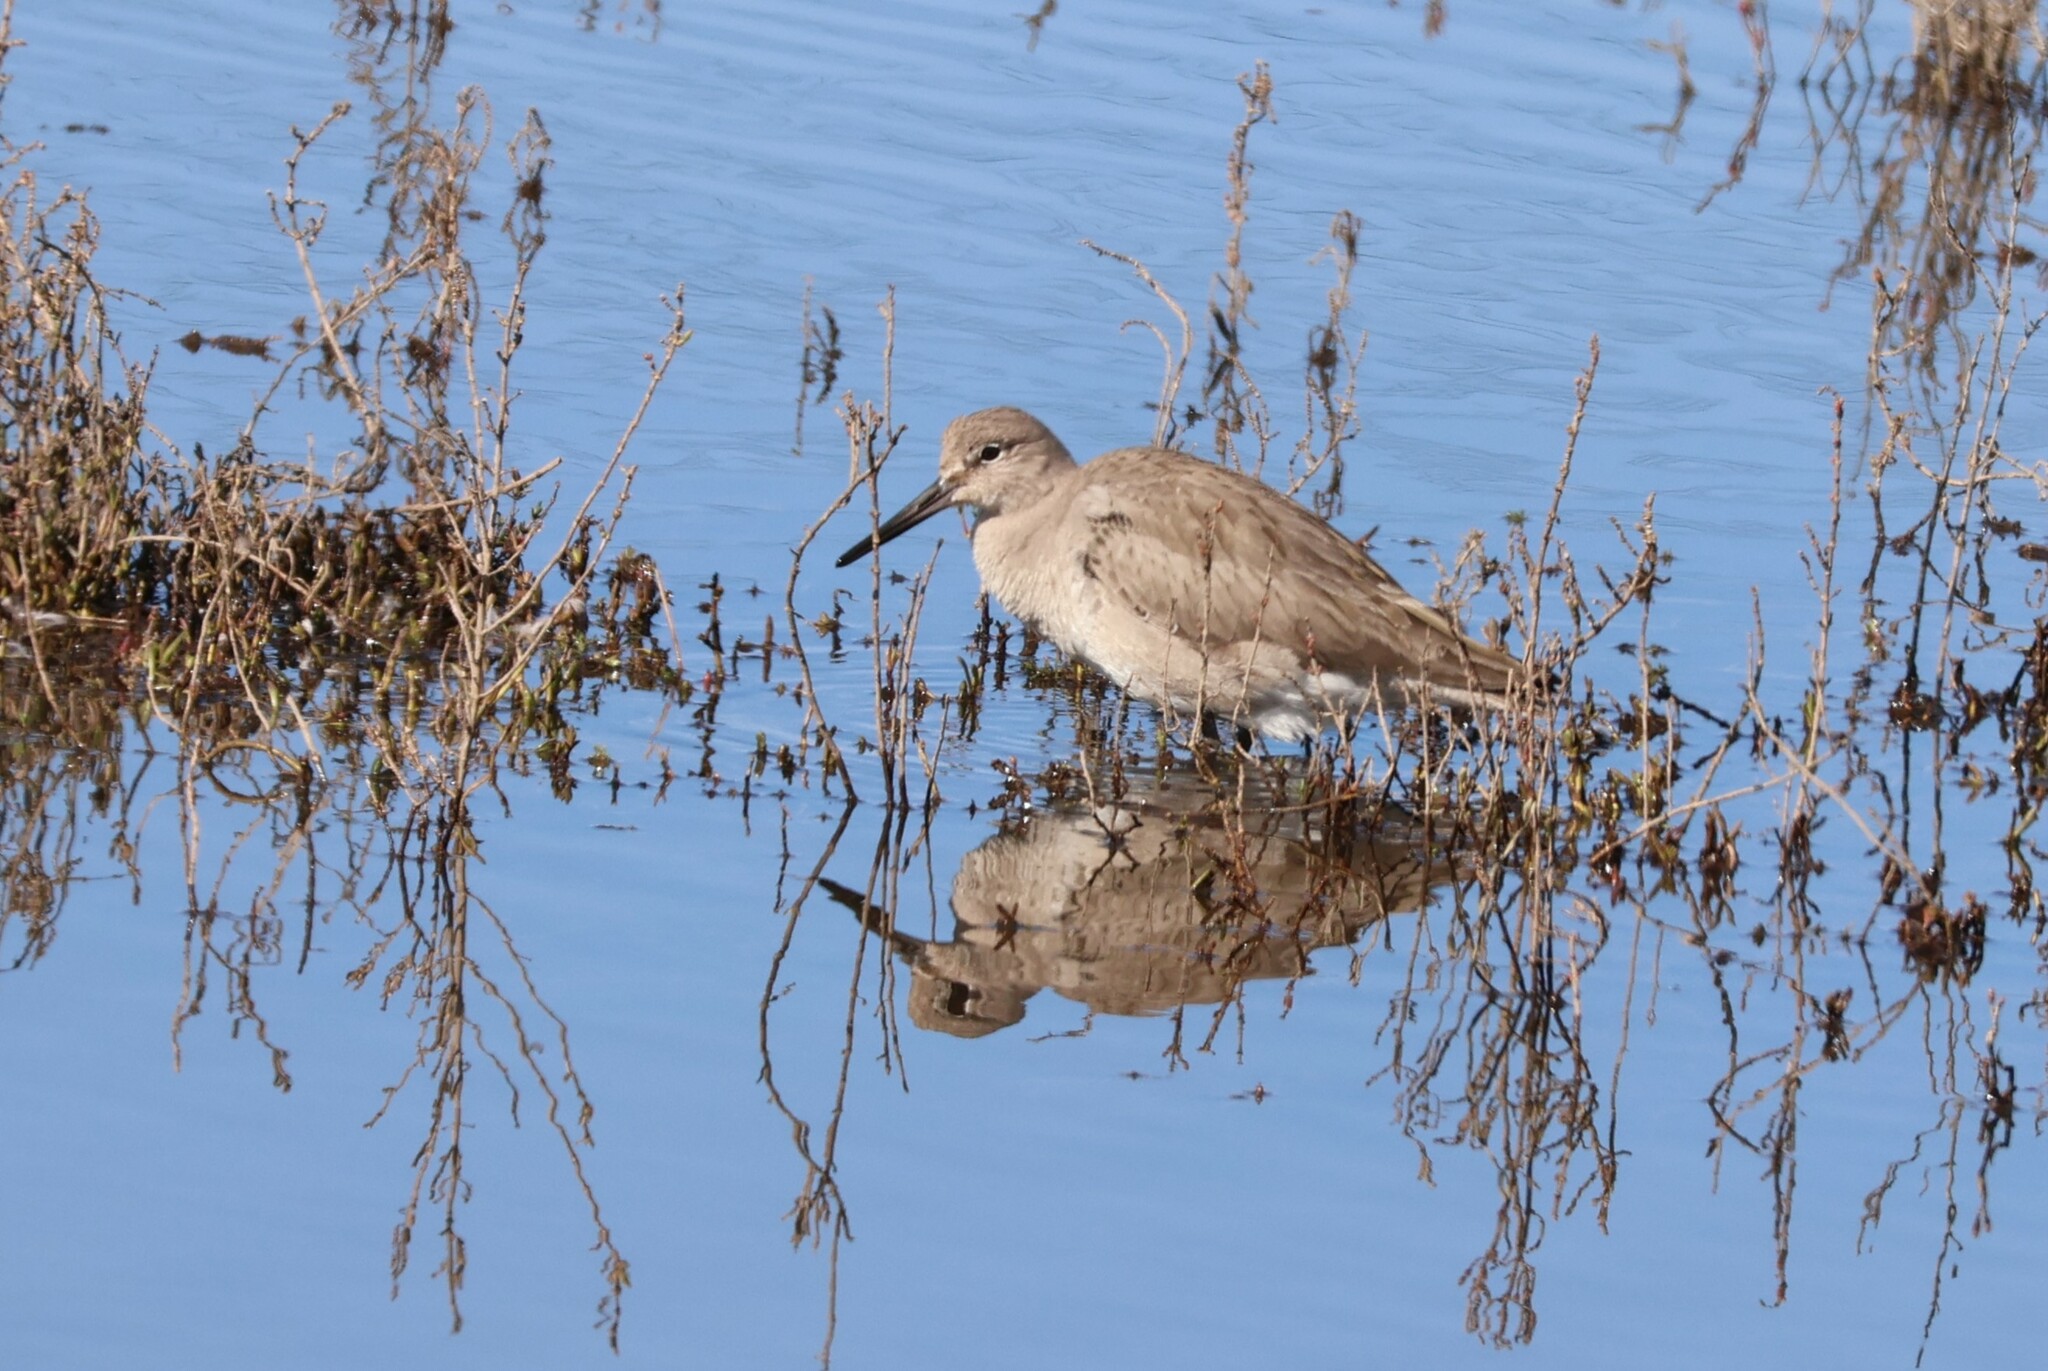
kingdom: Animalia
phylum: Chordata
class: Aves
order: Charadriiformes
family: Scolopacidae
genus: Tringa
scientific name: Tringa semipalmata
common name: Willet
